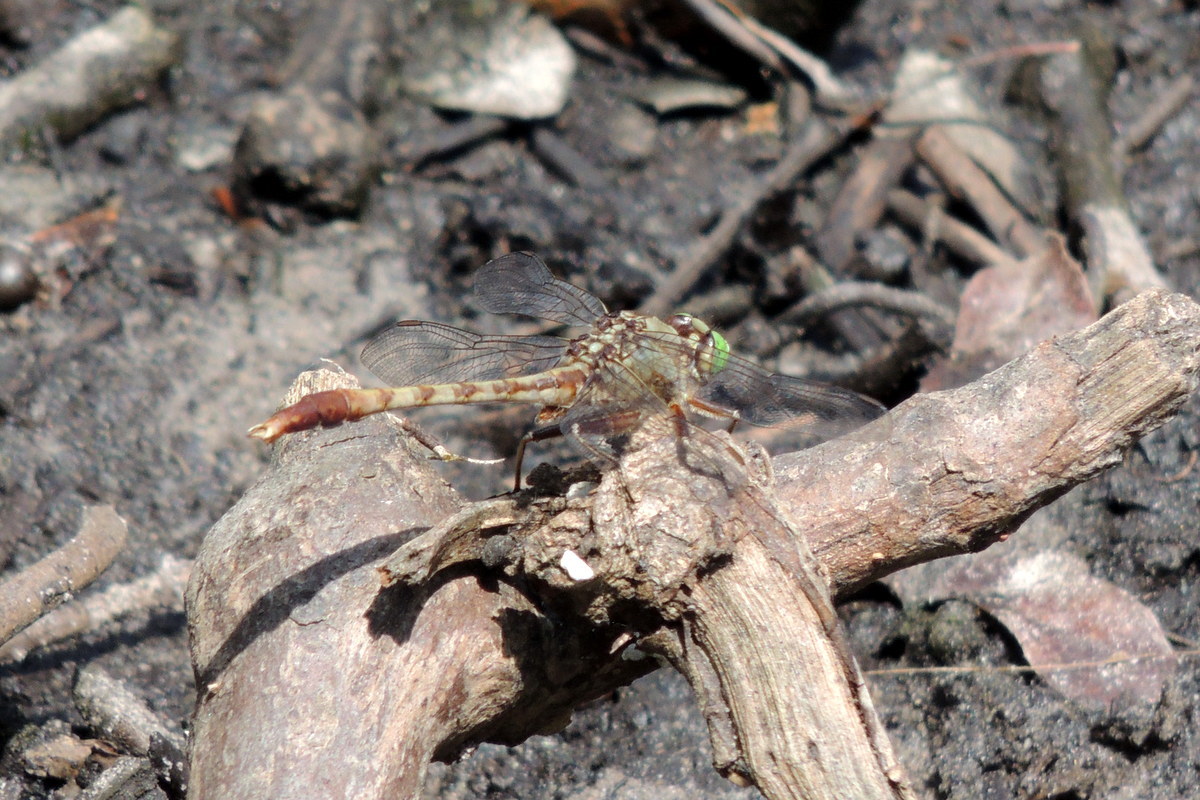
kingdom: Animalia
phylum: Arthropoda
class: Insecta
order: Odonata
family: Gomphidae
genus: Arigomphus
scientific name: Arigomphus pallidus
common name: Gray-green clubtail
